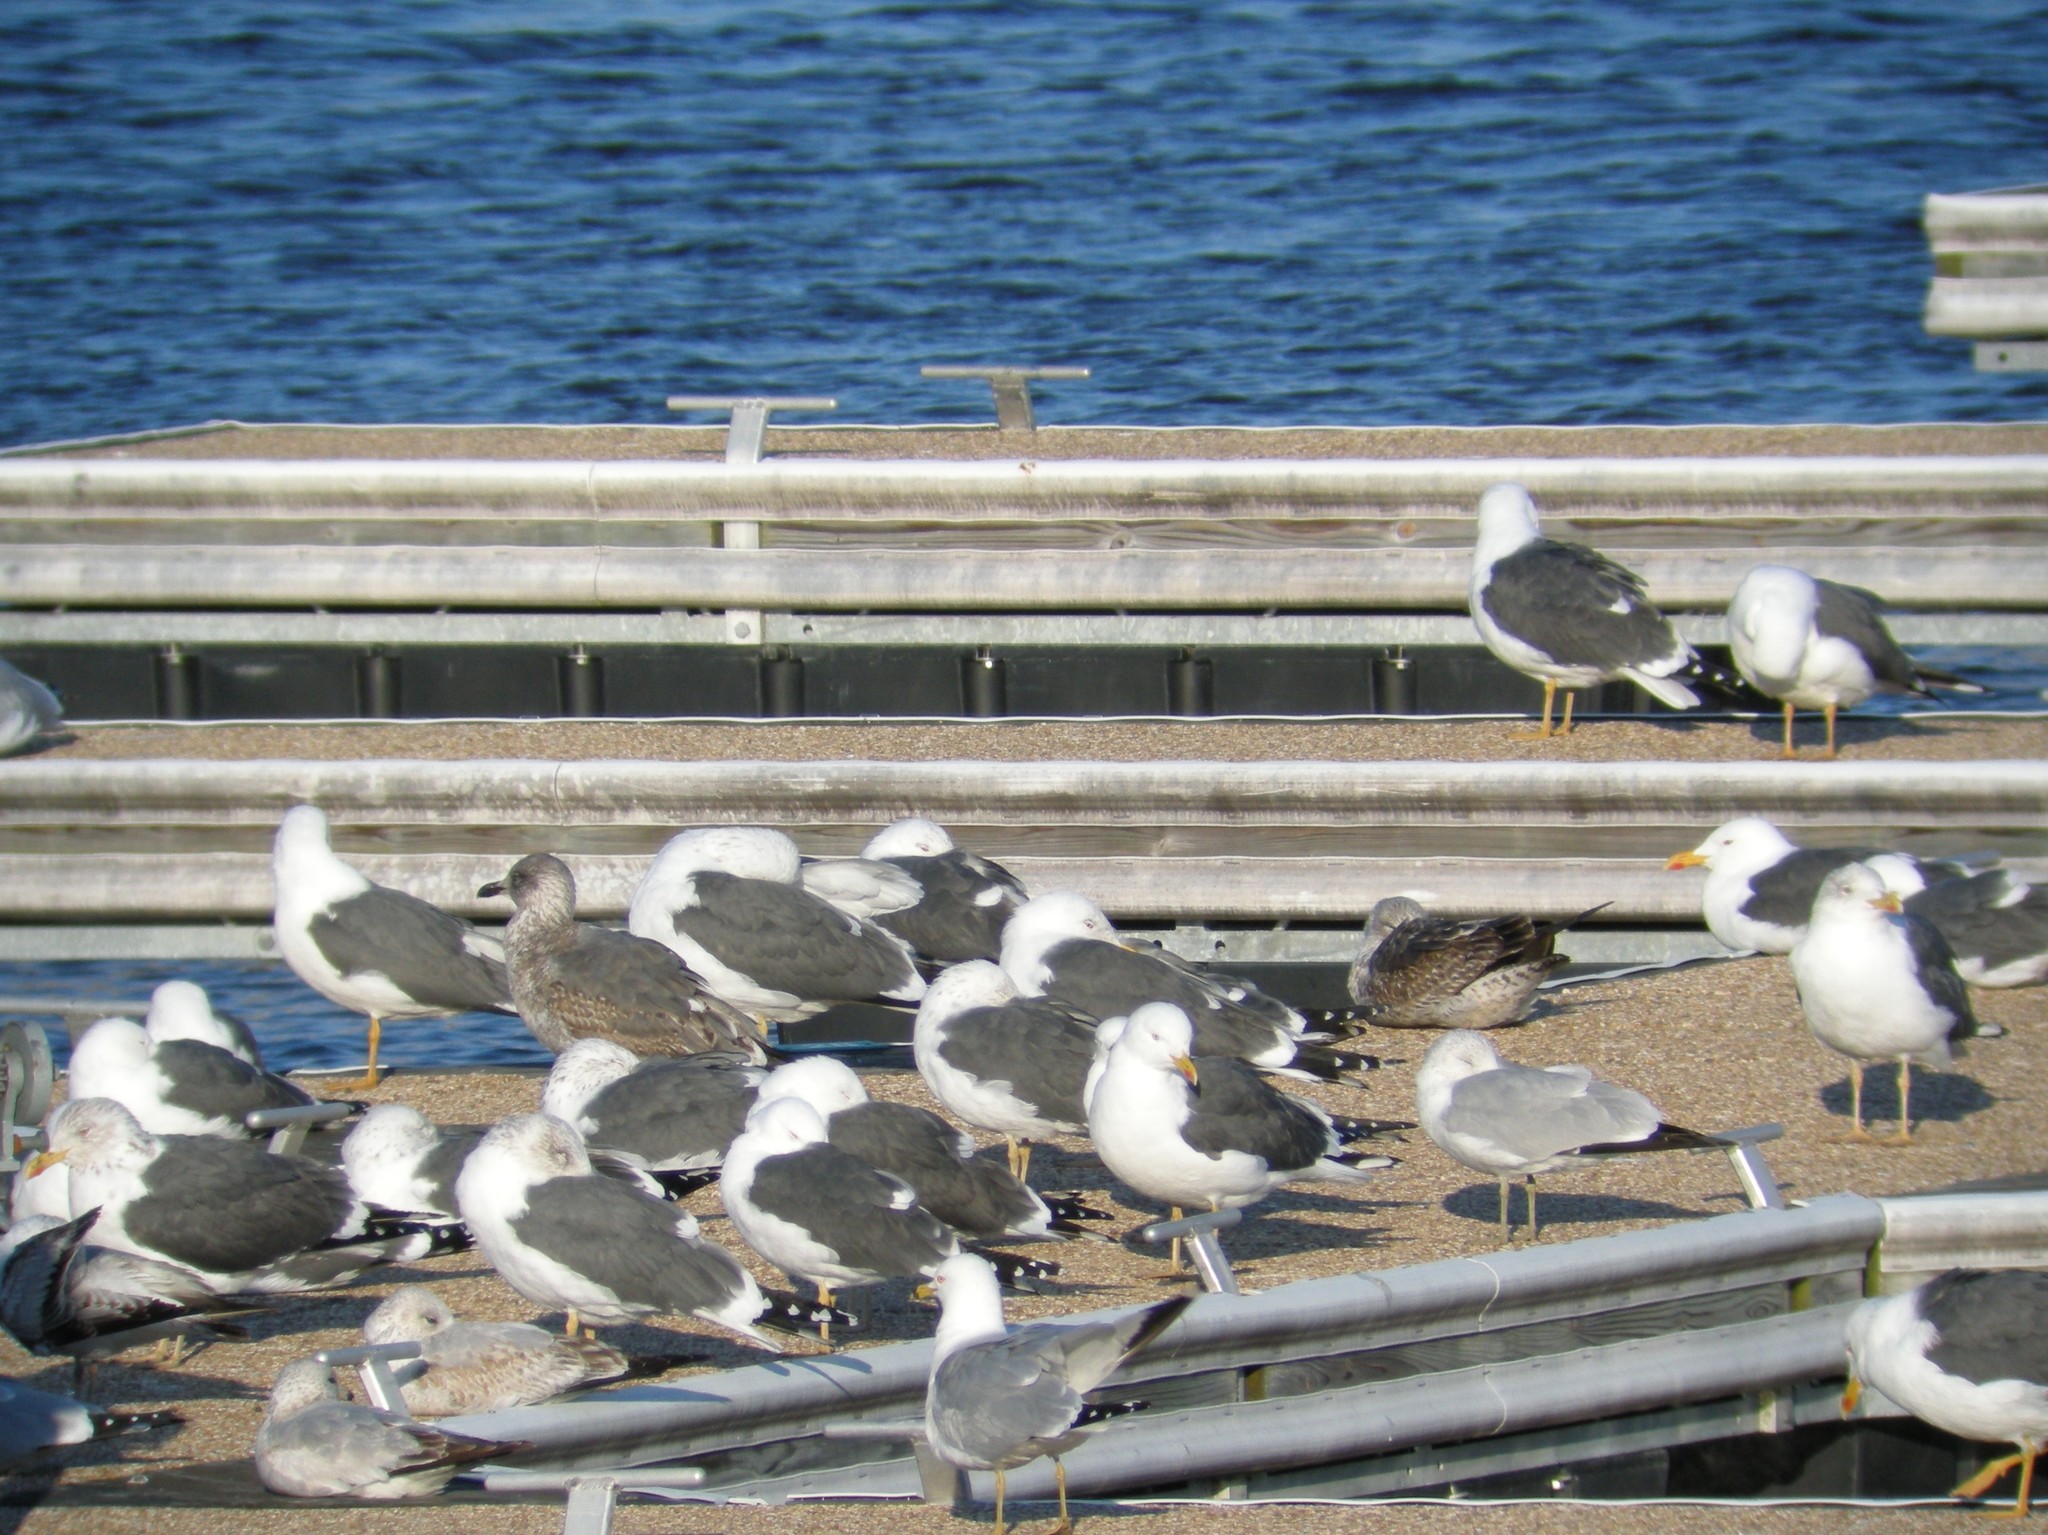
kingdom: Animalia
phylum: Chordata
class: Aves
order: Charadriiformes
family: Laridae
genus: Larus
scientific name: Larus fuscus
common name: Lesser black-backed gull
